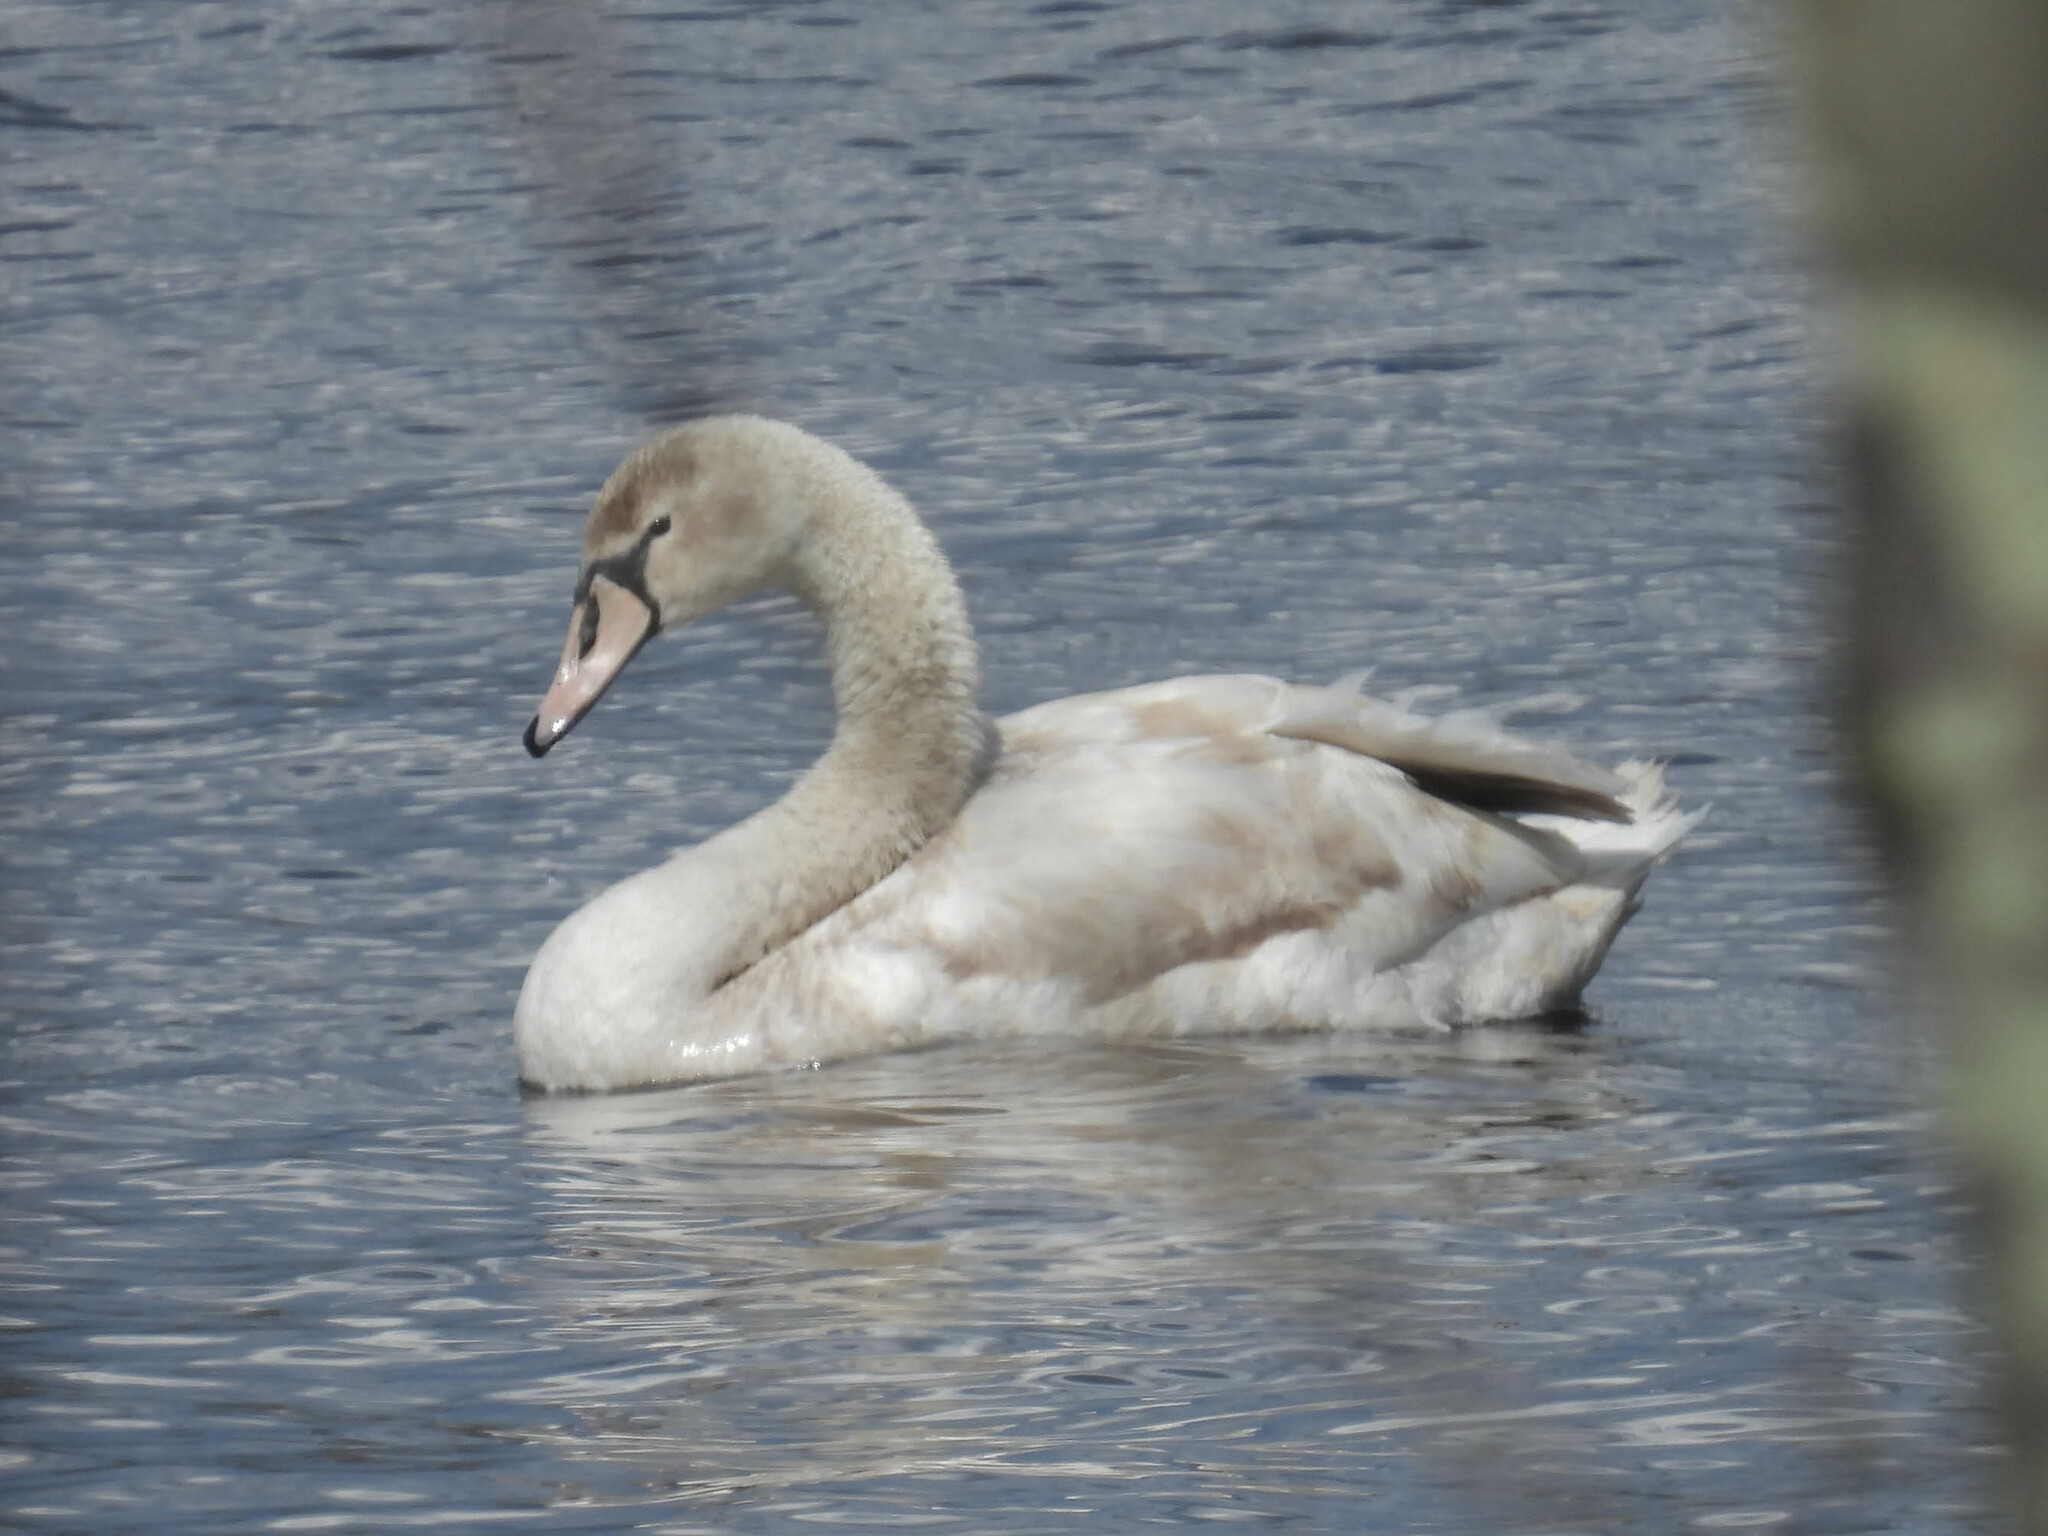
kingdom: Animalia
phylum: Chordata
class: Aves
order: Anseriformes
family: Anatidae
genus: Cygnus
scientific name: Cygnus olor
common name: Mute swan
